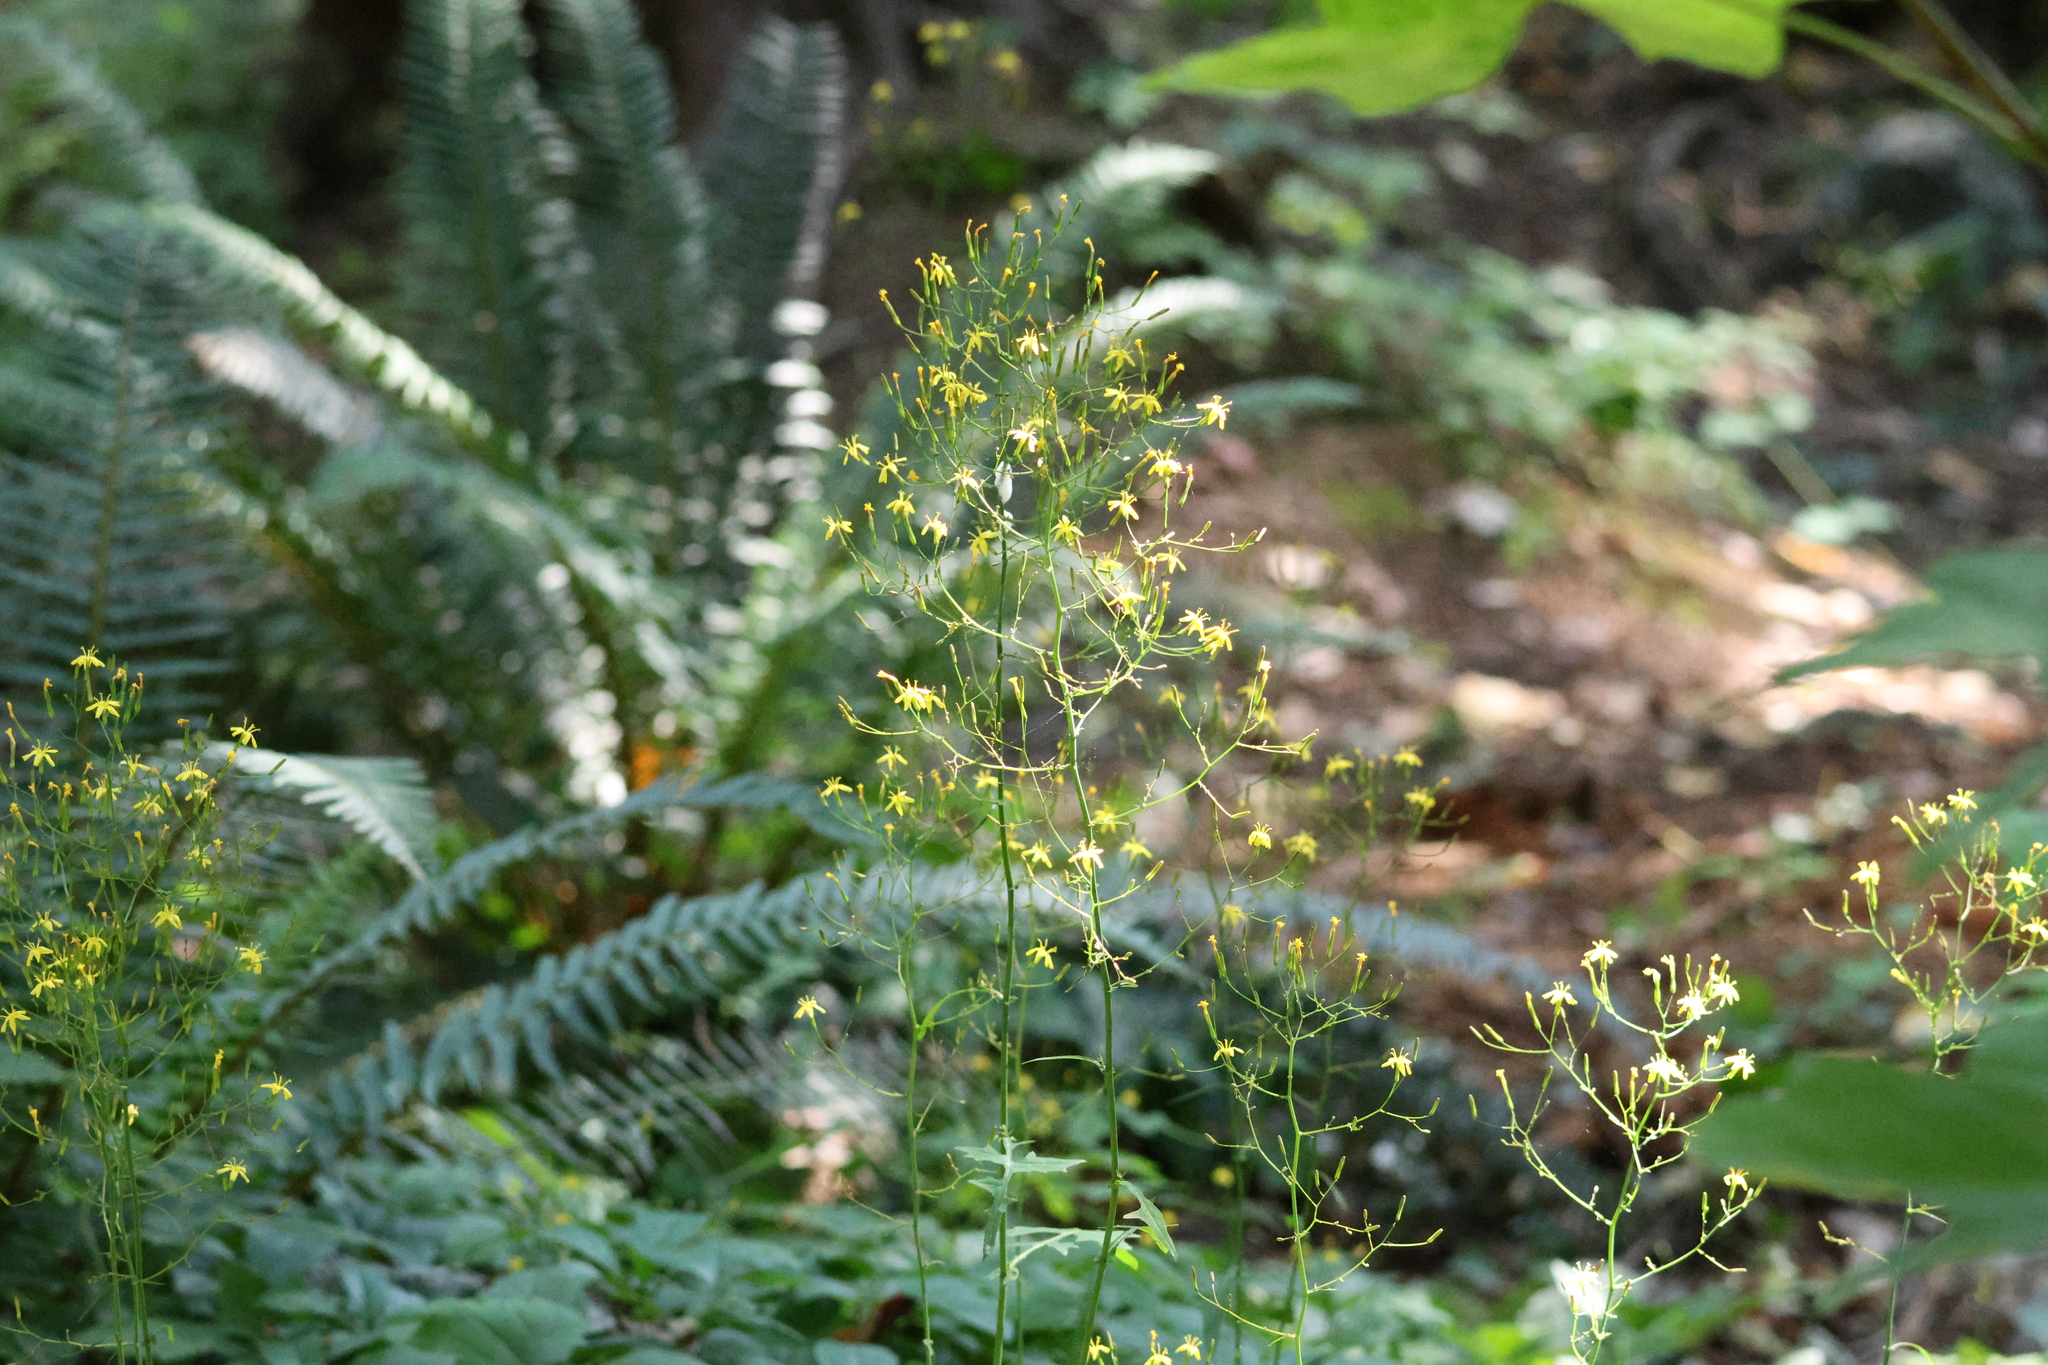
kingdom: Plantae
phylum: Tracheophyta
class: Magnoliopsida
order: Asterales
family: Asteraceae
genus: Mycelis
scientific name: Mycelis muralis
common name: Wall lettuce
